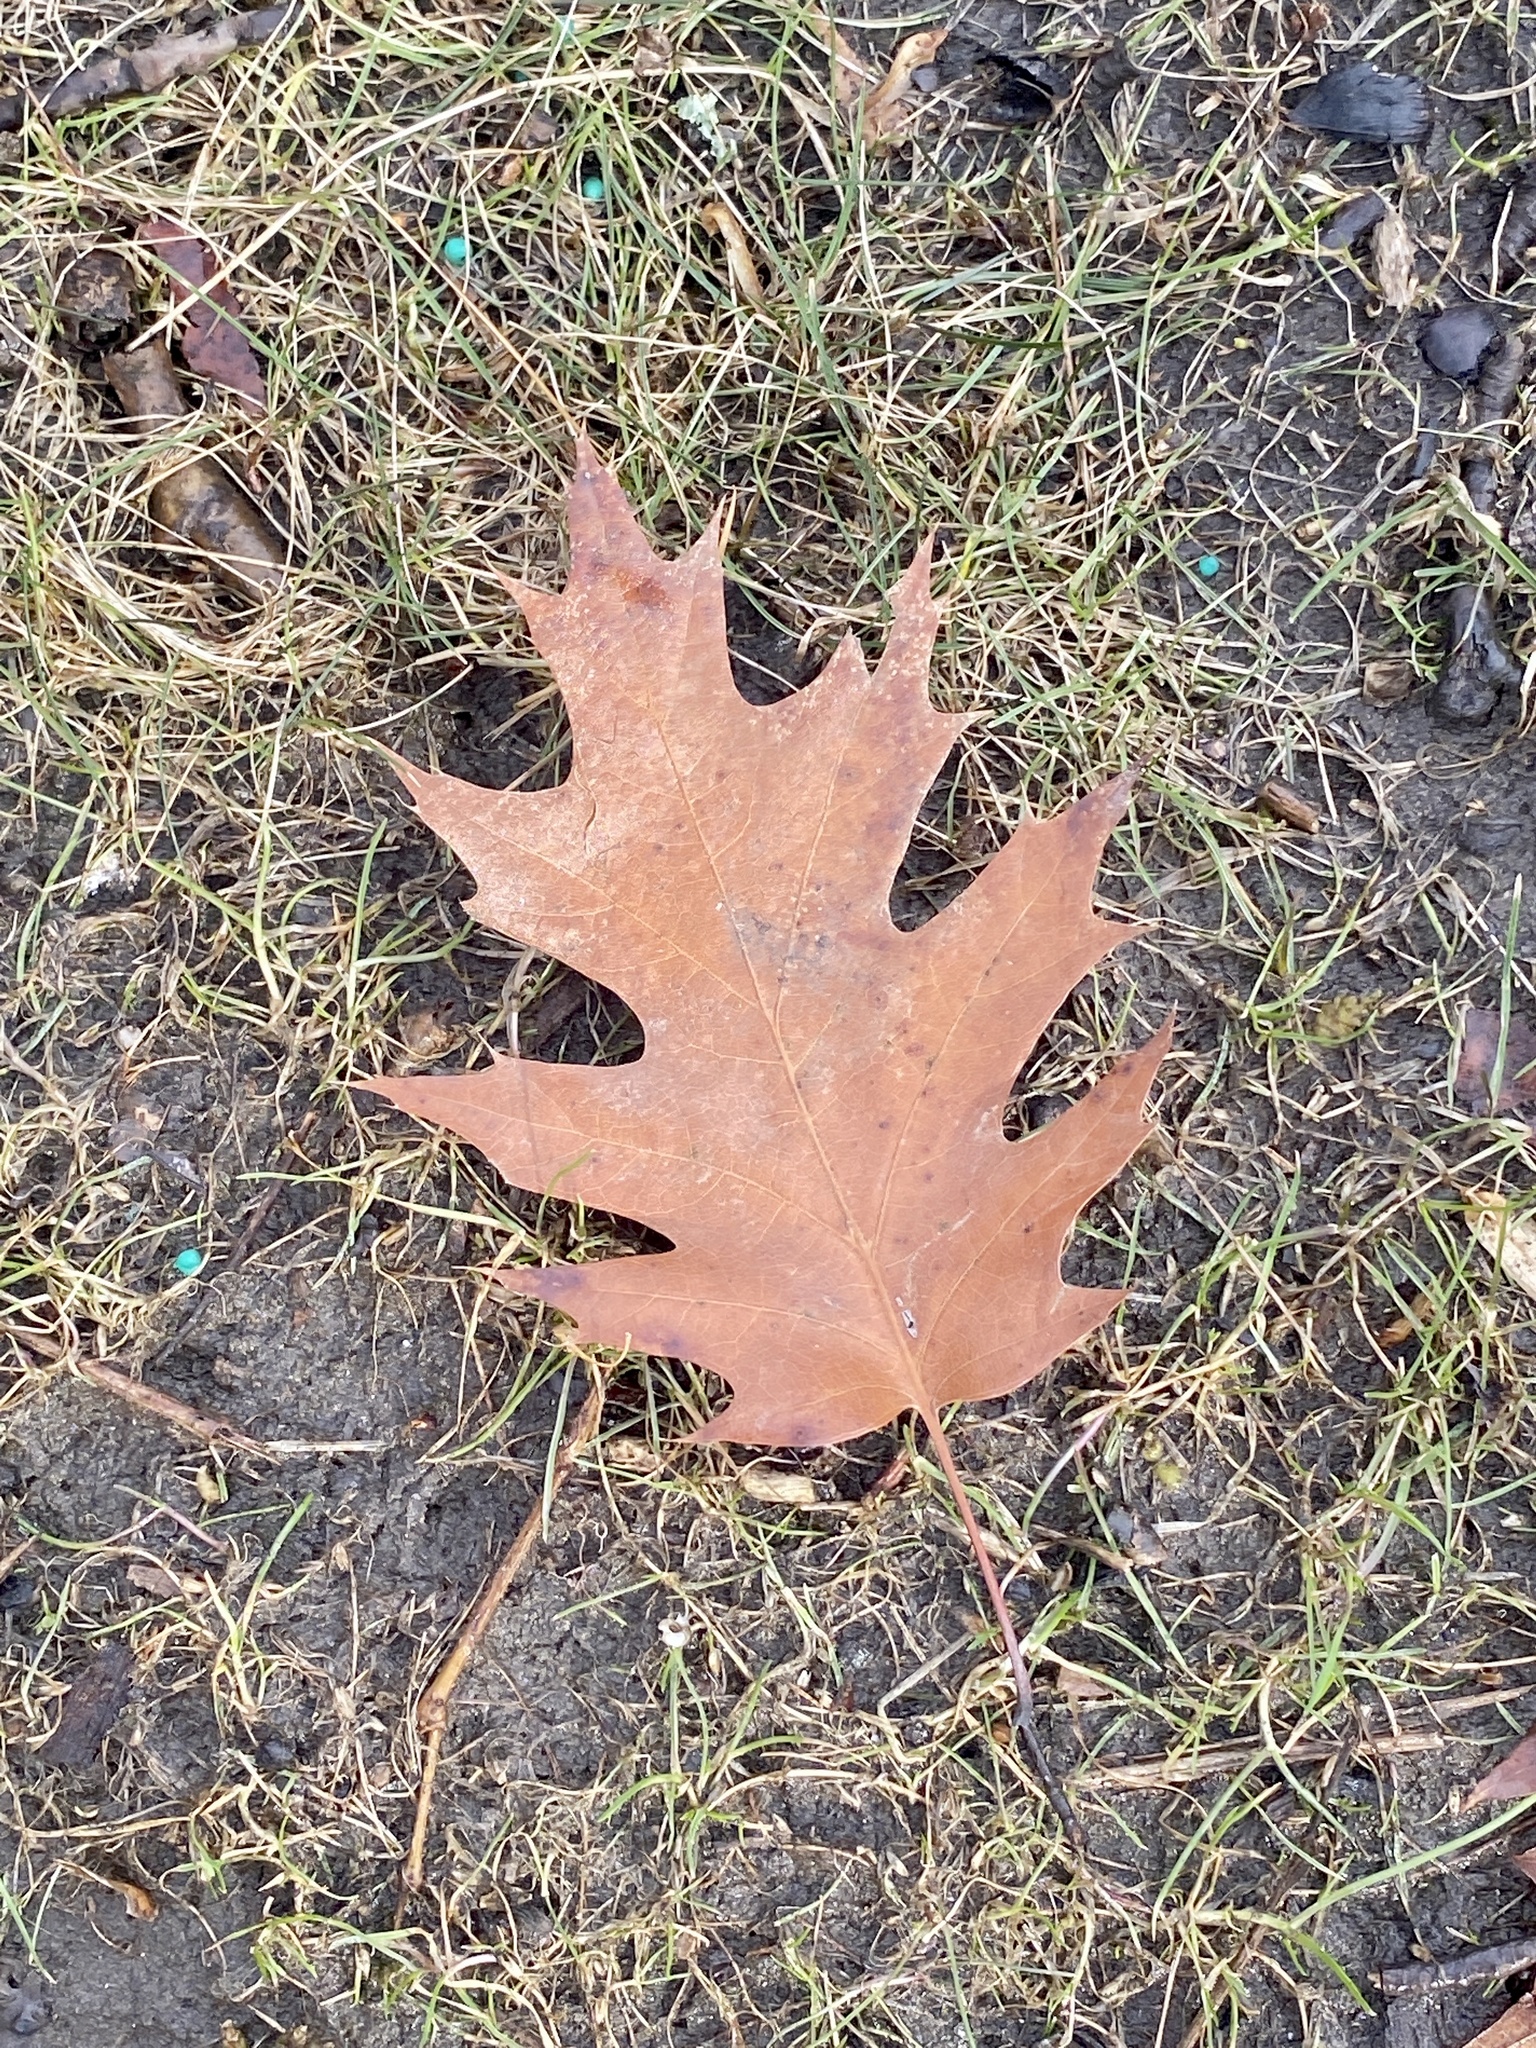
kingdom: Plantae
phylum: Tracheophyta
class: Magnoliopsida
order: Fagales
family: Fagaceae
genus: Quercus
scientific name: Quercus rubra
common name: Red oak
